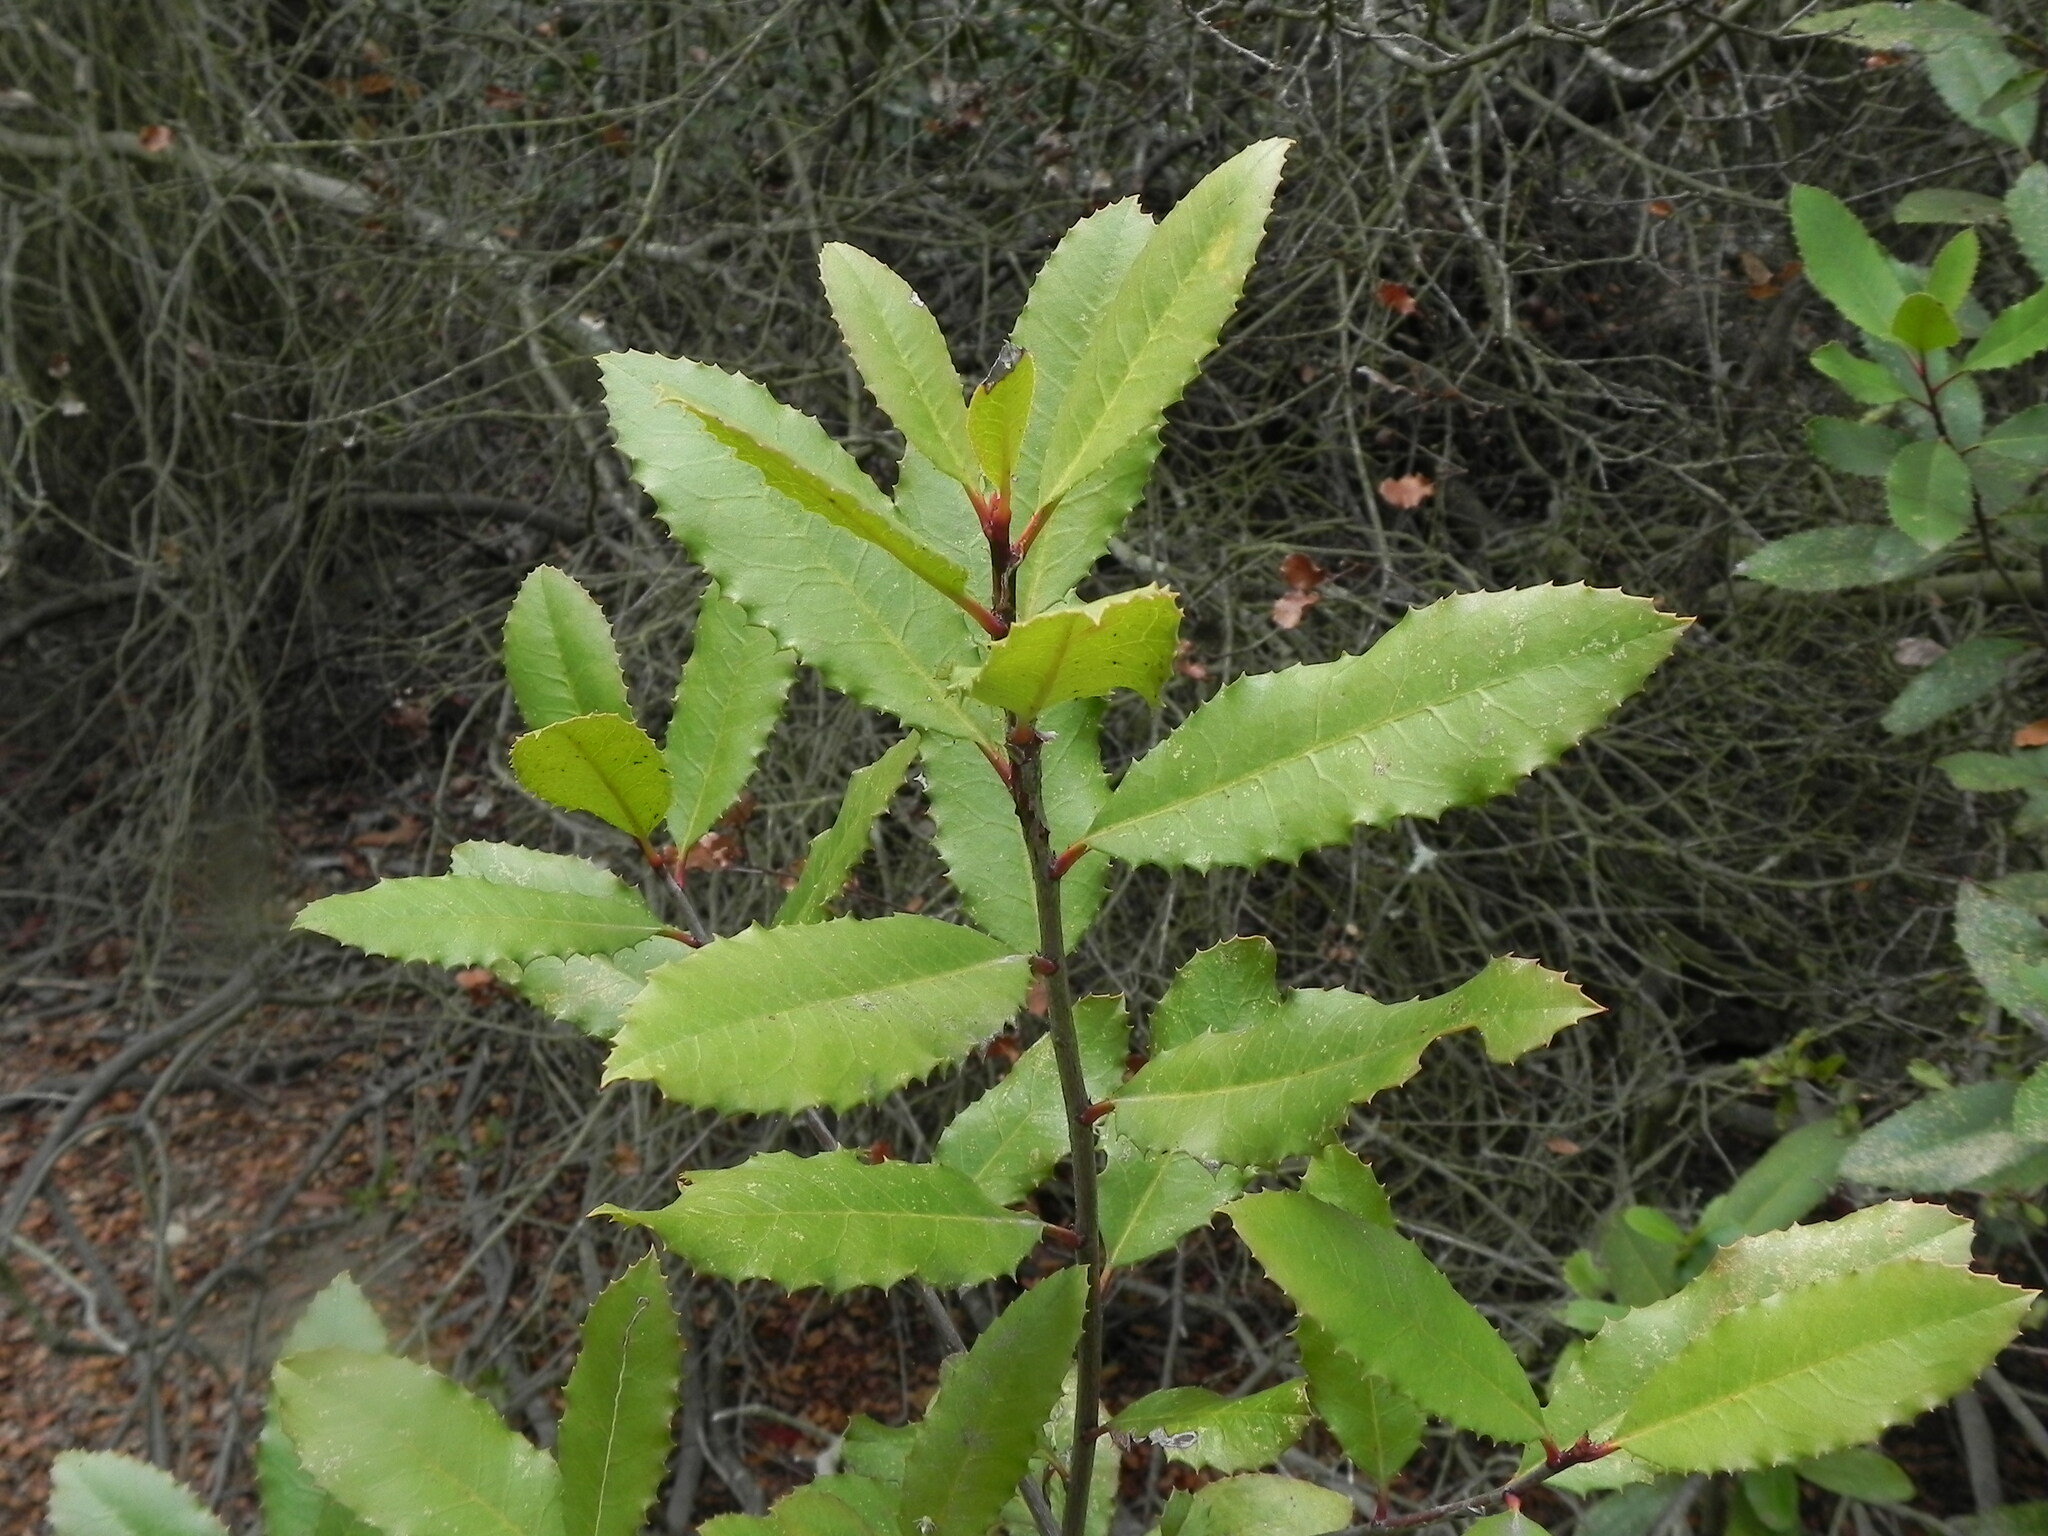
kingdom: Plantae
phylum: Tracheophyta
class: Magnoliopsida
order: Rosales
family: Rosaceae
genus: Heteromeles
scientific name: Heteromeles arbutifolia
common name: California-holly
